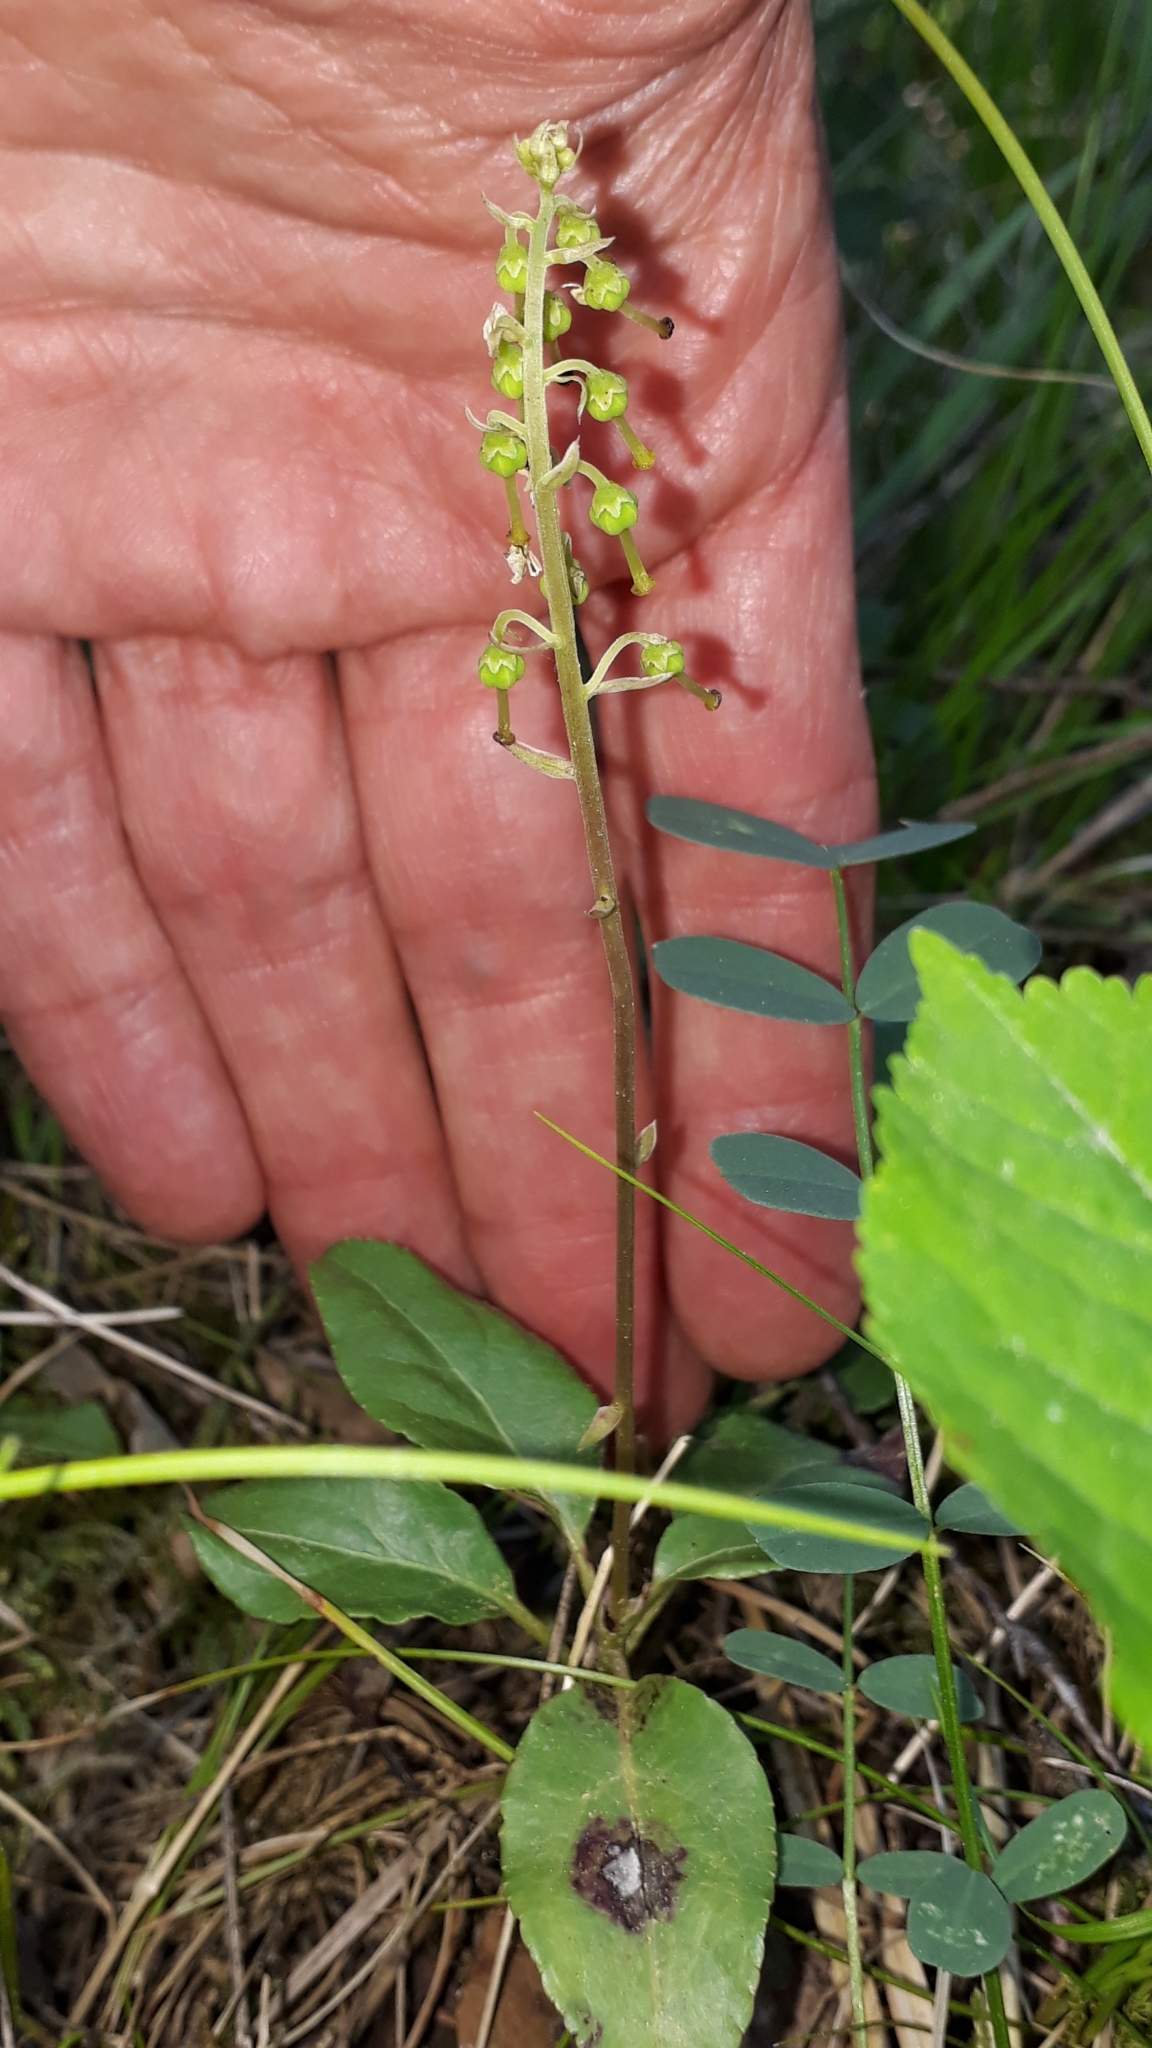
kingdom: Plantae
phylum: Tracheophyta
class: Magnoliopsida
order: Ericales
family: Ericaceae
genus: Orthilia
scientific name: Orthilia secunda
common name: One-sided orthilia
